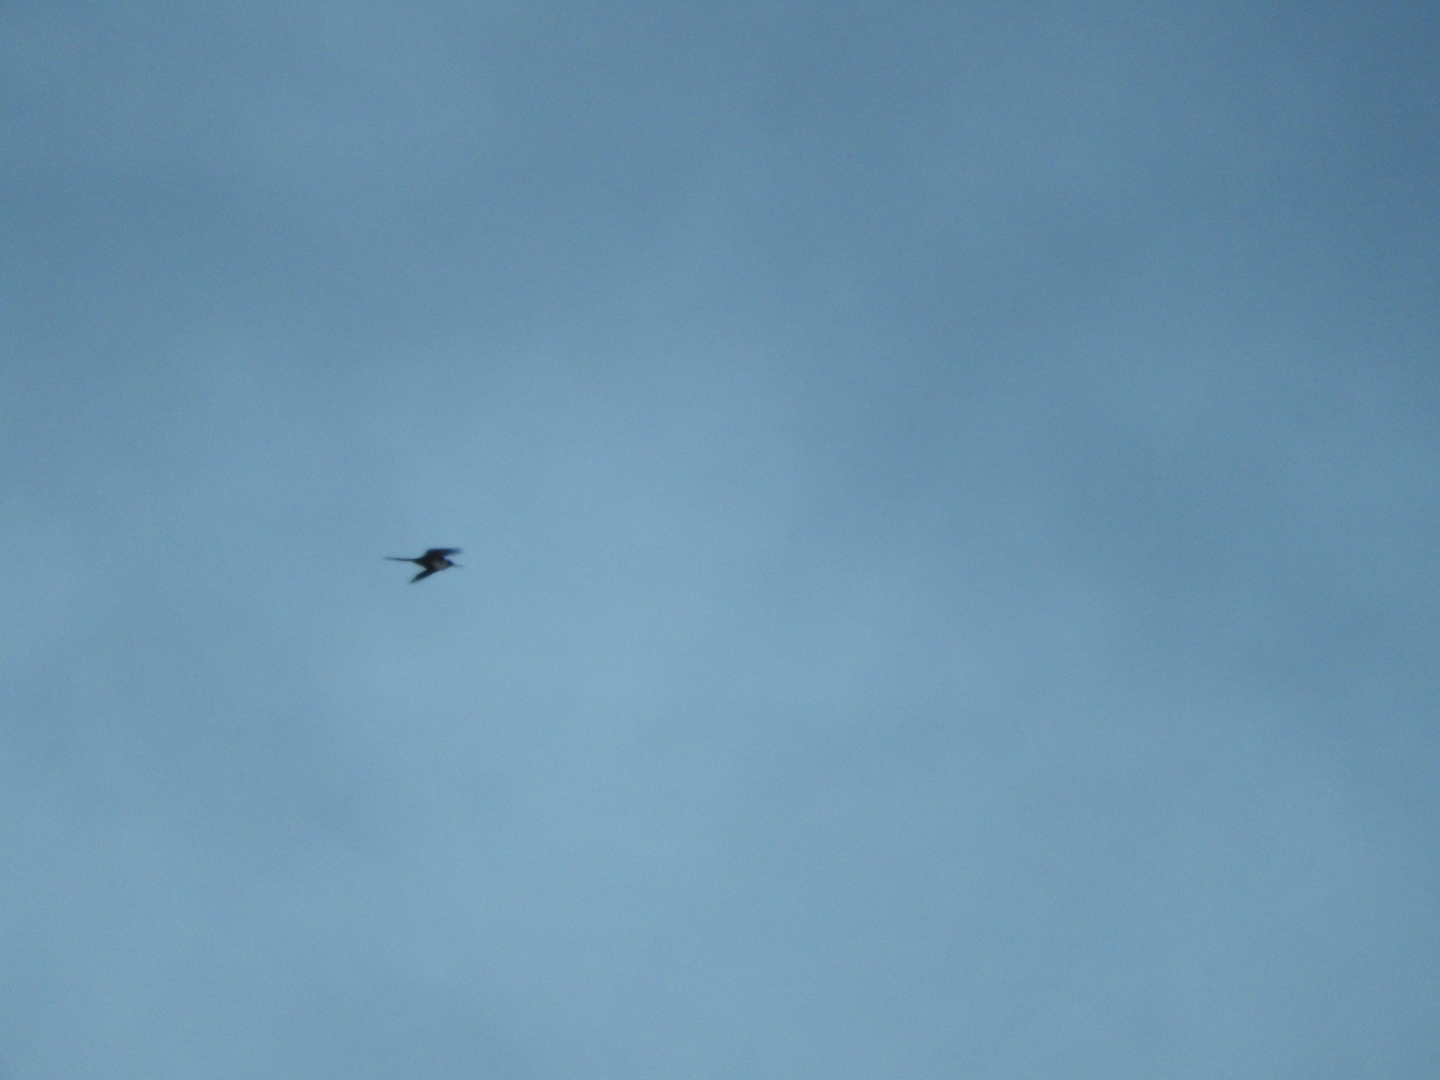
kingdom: Animalia
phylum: Chordata
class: Aves
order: Suliformes
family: Fregatidae
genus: Fregata
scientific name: Fregata magnificens
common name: Magnificent frigatebird
